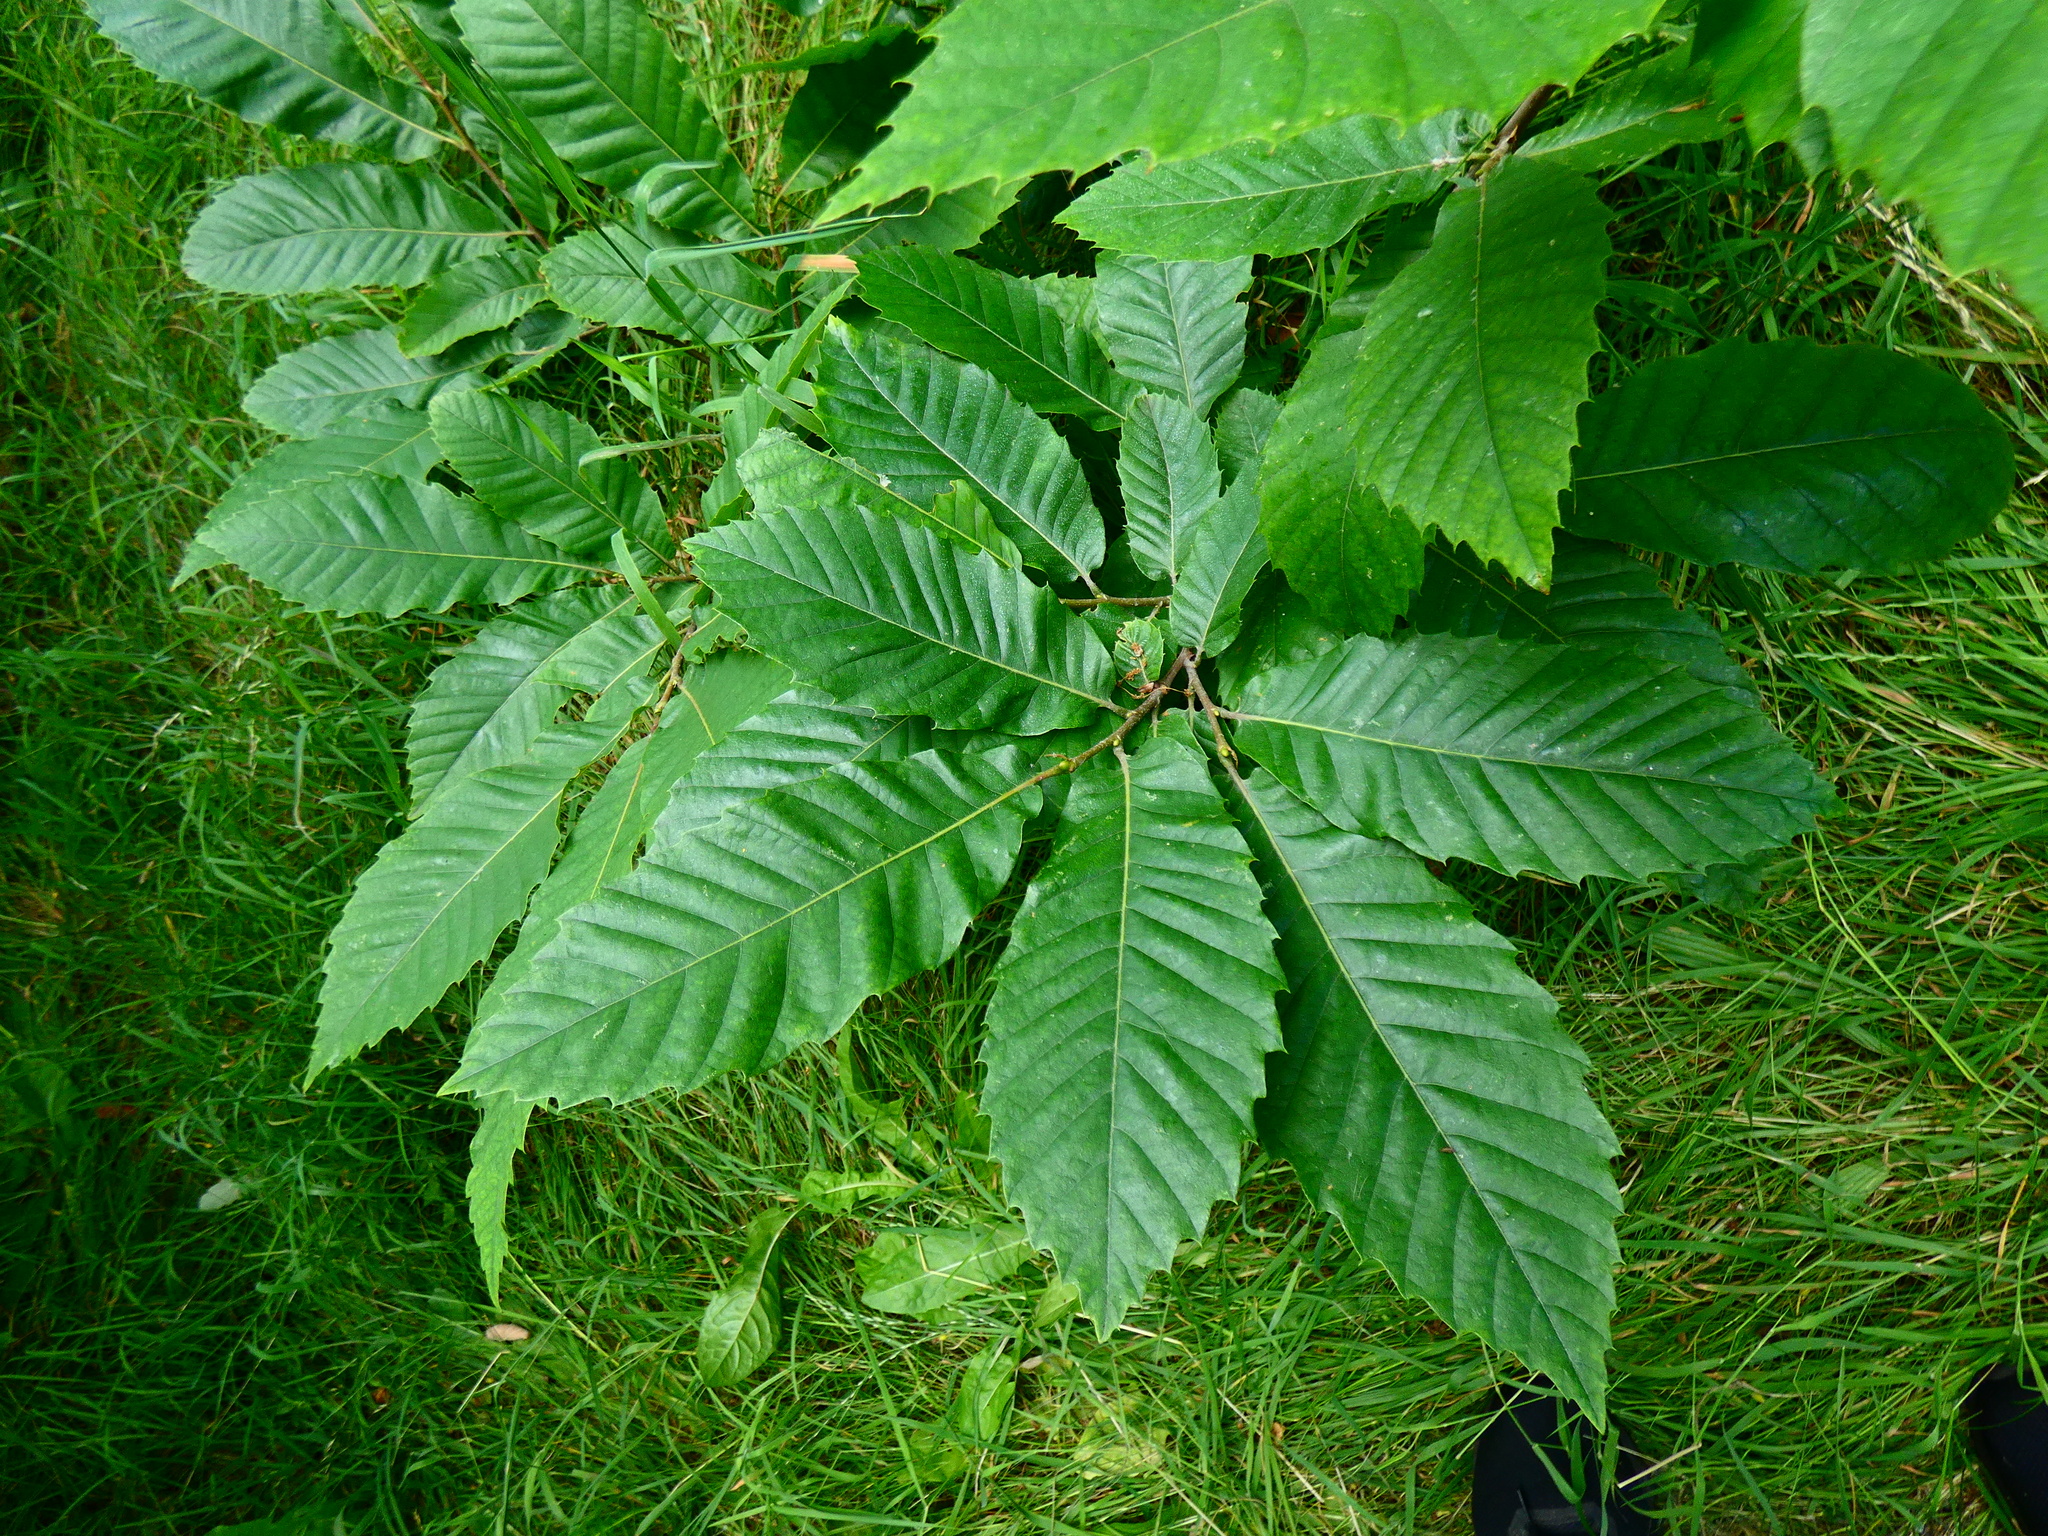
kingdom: Plantae
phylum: Tracheophyta
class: Magnoliopsida
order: Fagales
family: Fagaceae
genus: Castanea
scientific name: Castanea sativa
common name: Sweet chestnut
